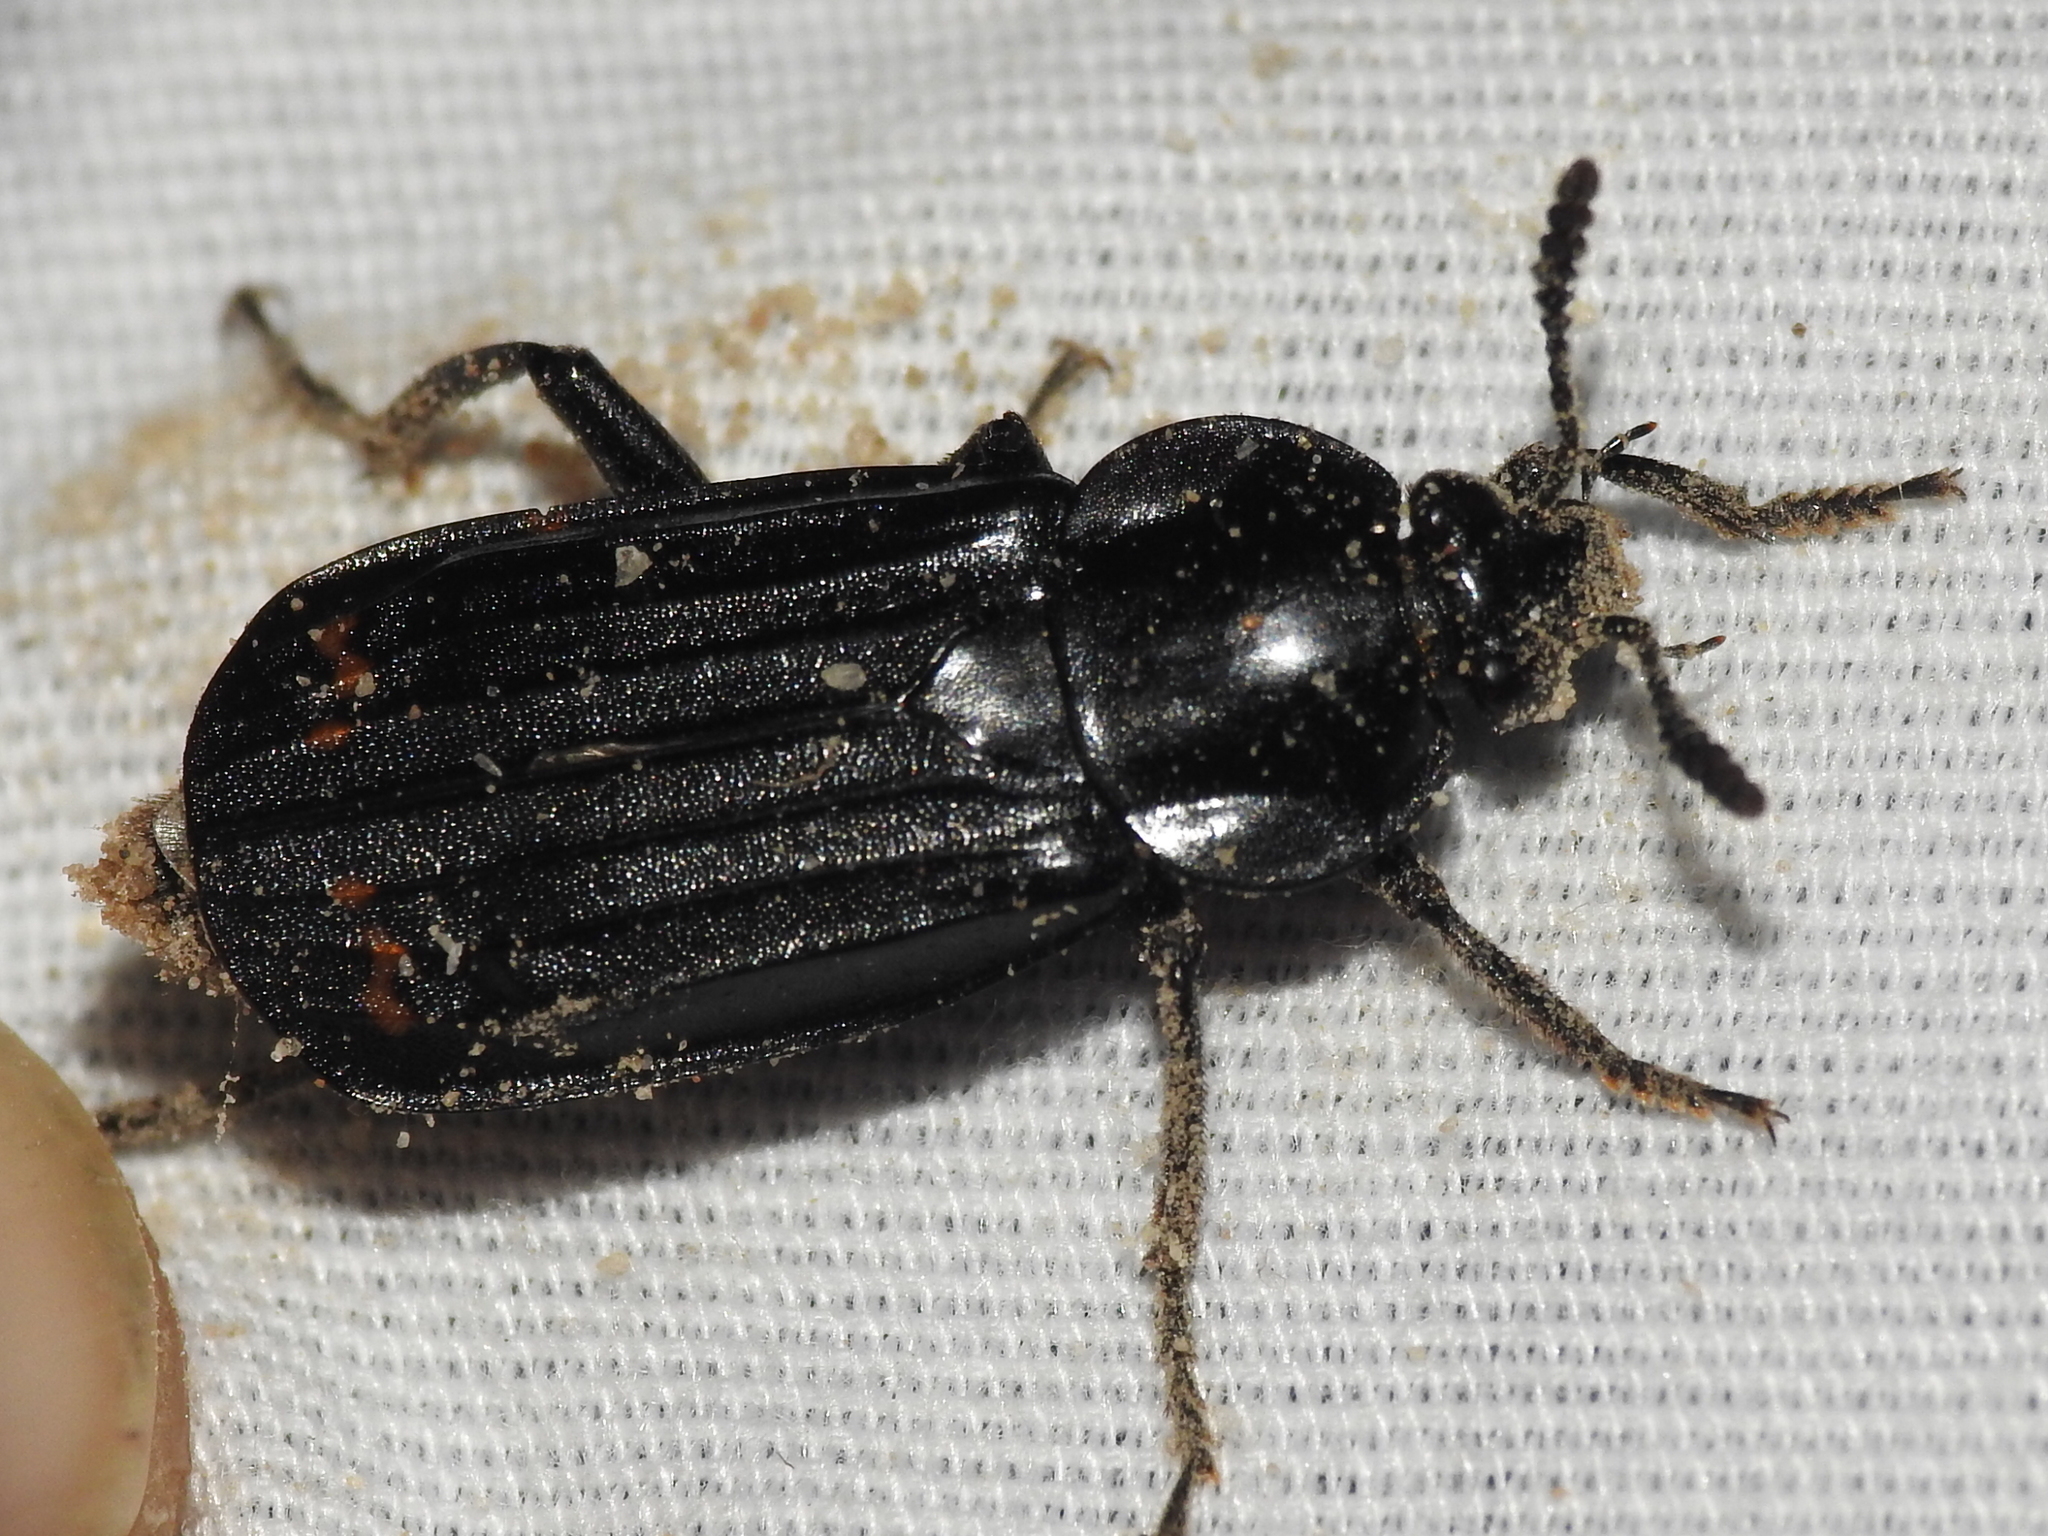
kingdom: Animalia
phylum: Arthropoda
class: Insecta
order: Coleoptera
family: Staphylinidae
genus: Necrodes
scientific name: Necrodes surinamensis
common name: Red-lined carrion beetle
